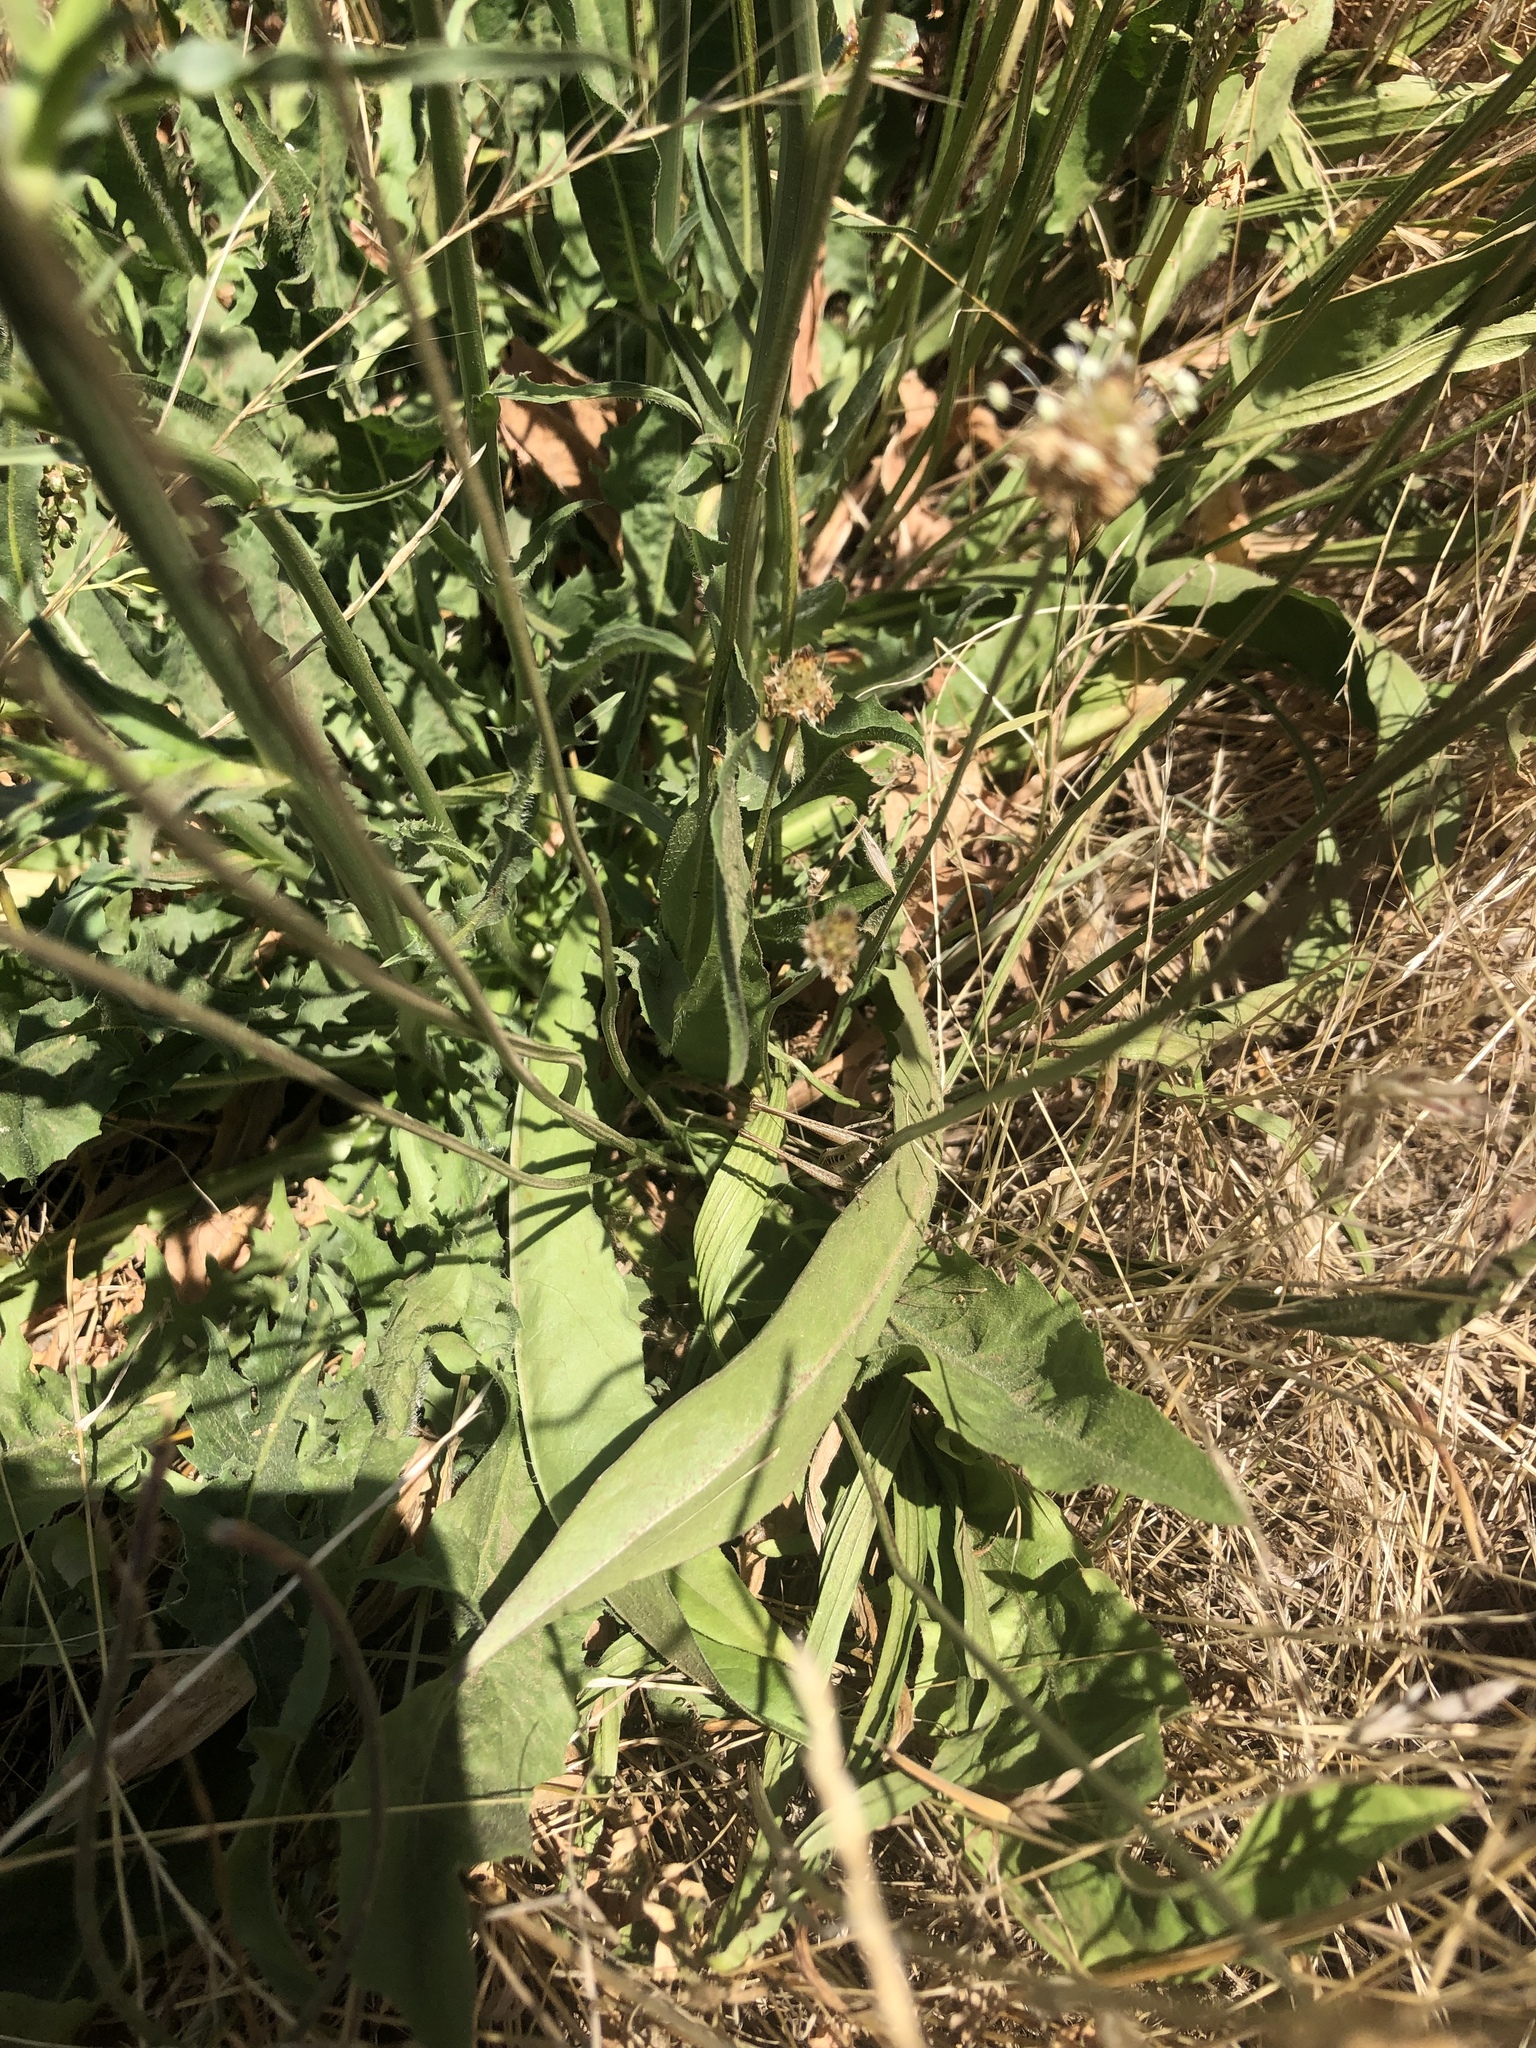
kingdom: Plantae
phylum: Tracheophyta
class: Magnoliopsida
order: Asterales
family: Asteraceae
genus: Cichorium
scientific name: Cichorium intybus
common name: Chicory
